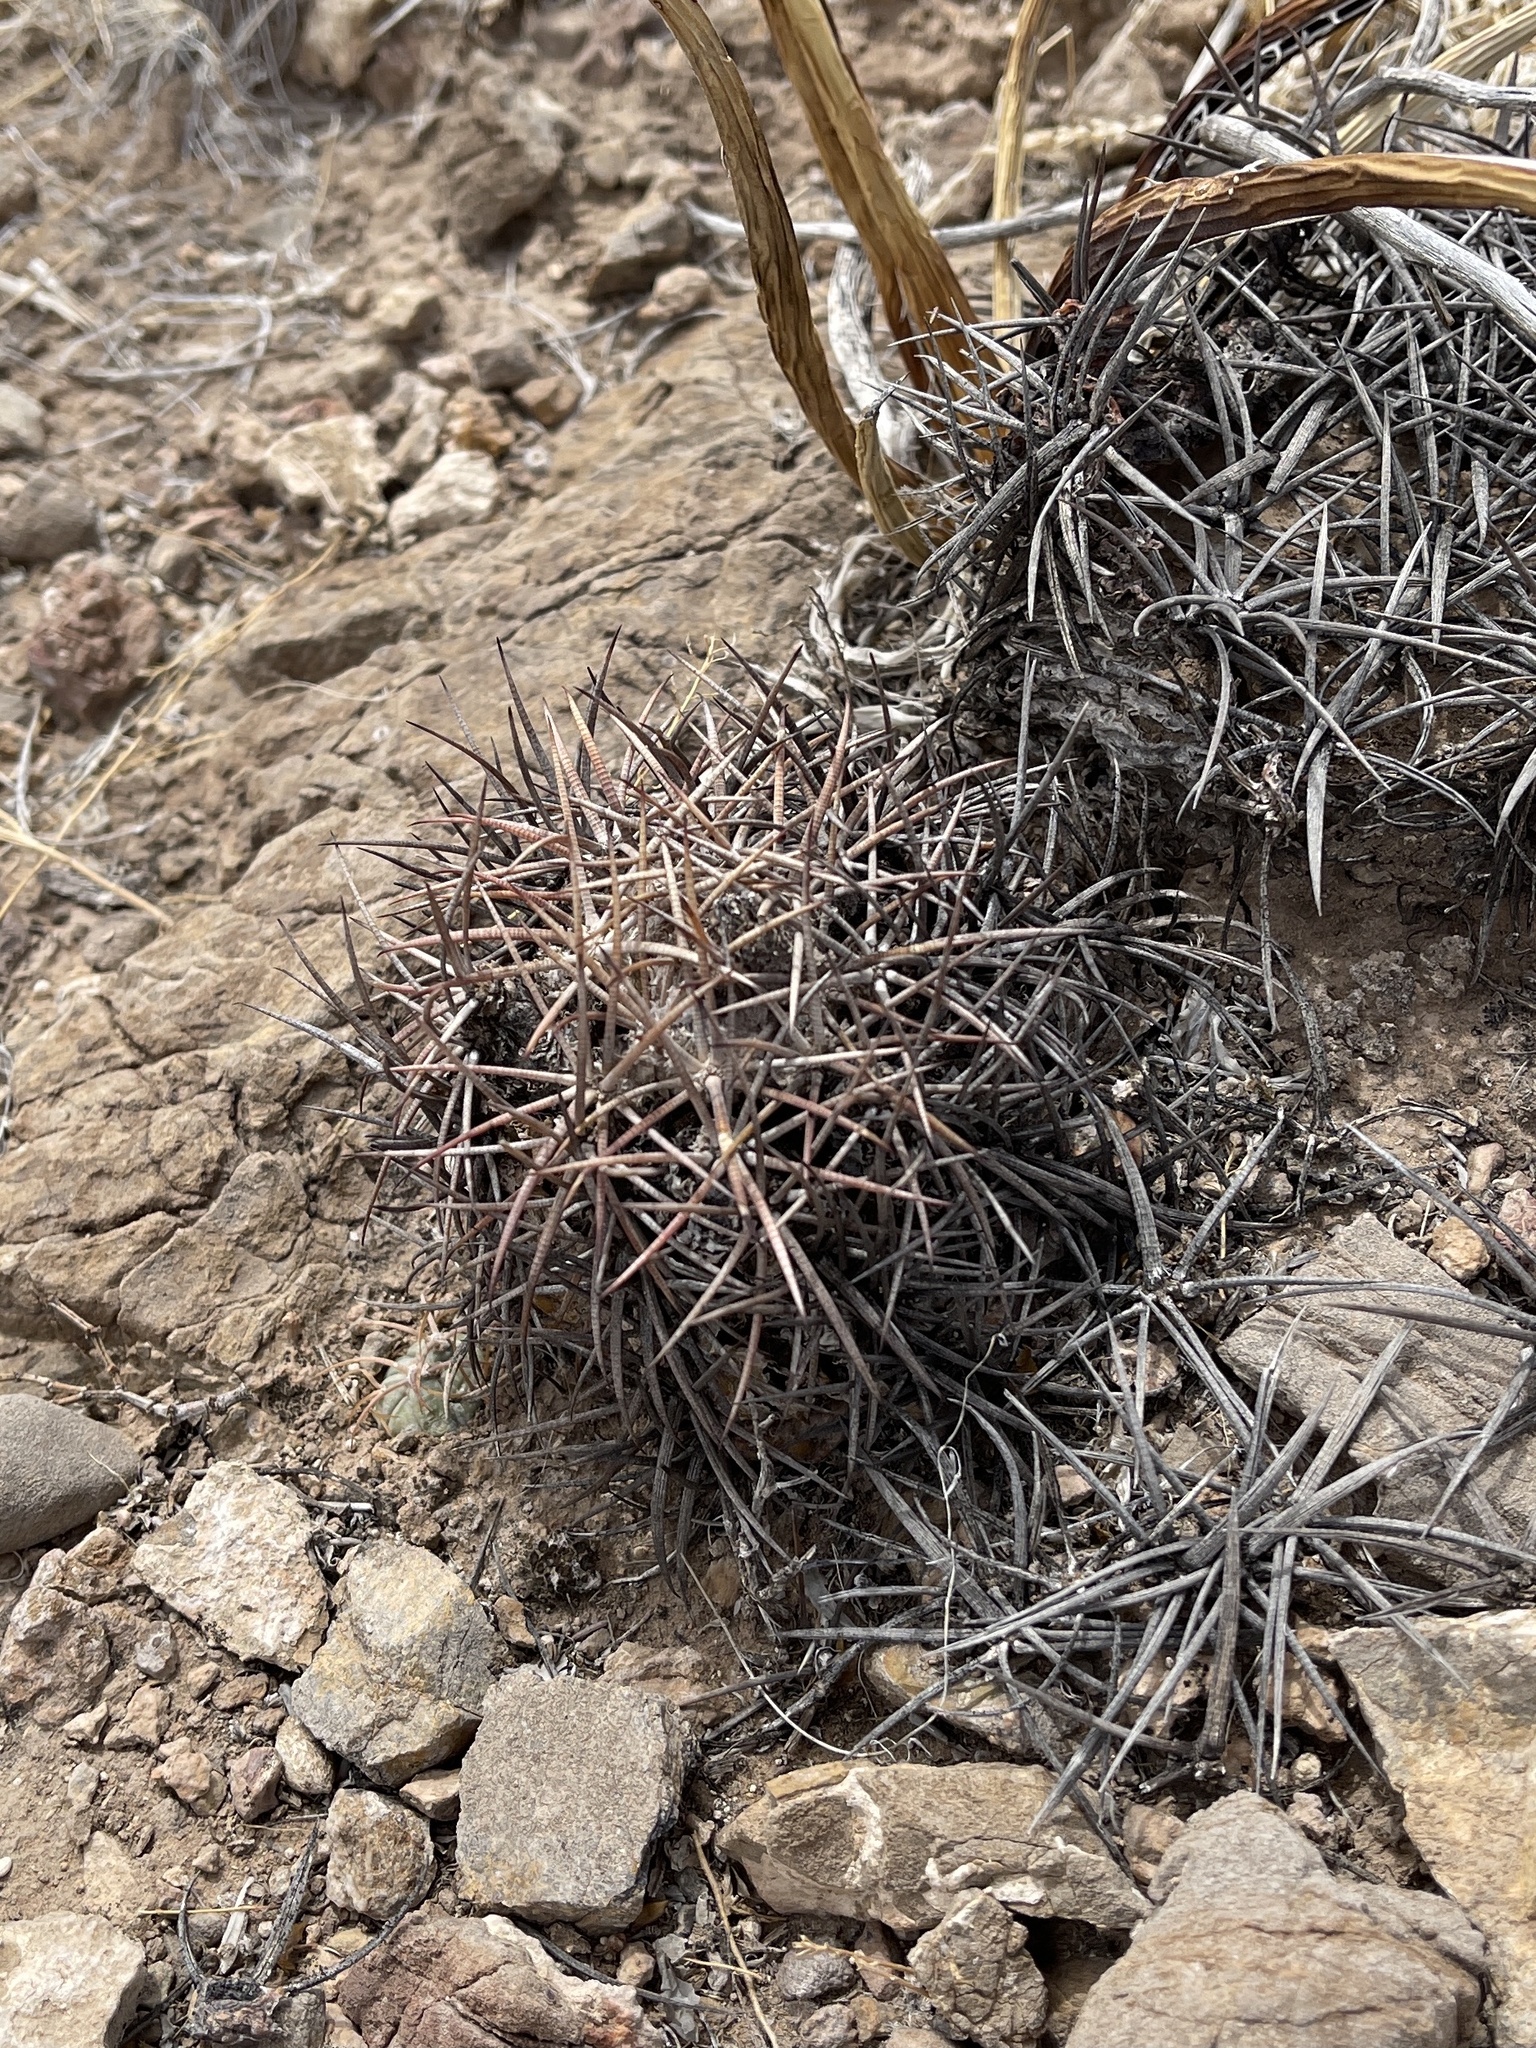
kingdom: Plantae
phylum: Tracheophyta
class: Magnoliopsida
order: Caryophyllales
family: Cactaceae
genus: Echinocactus
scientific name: Echinocactus horizonthalonius
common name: Devilshead
